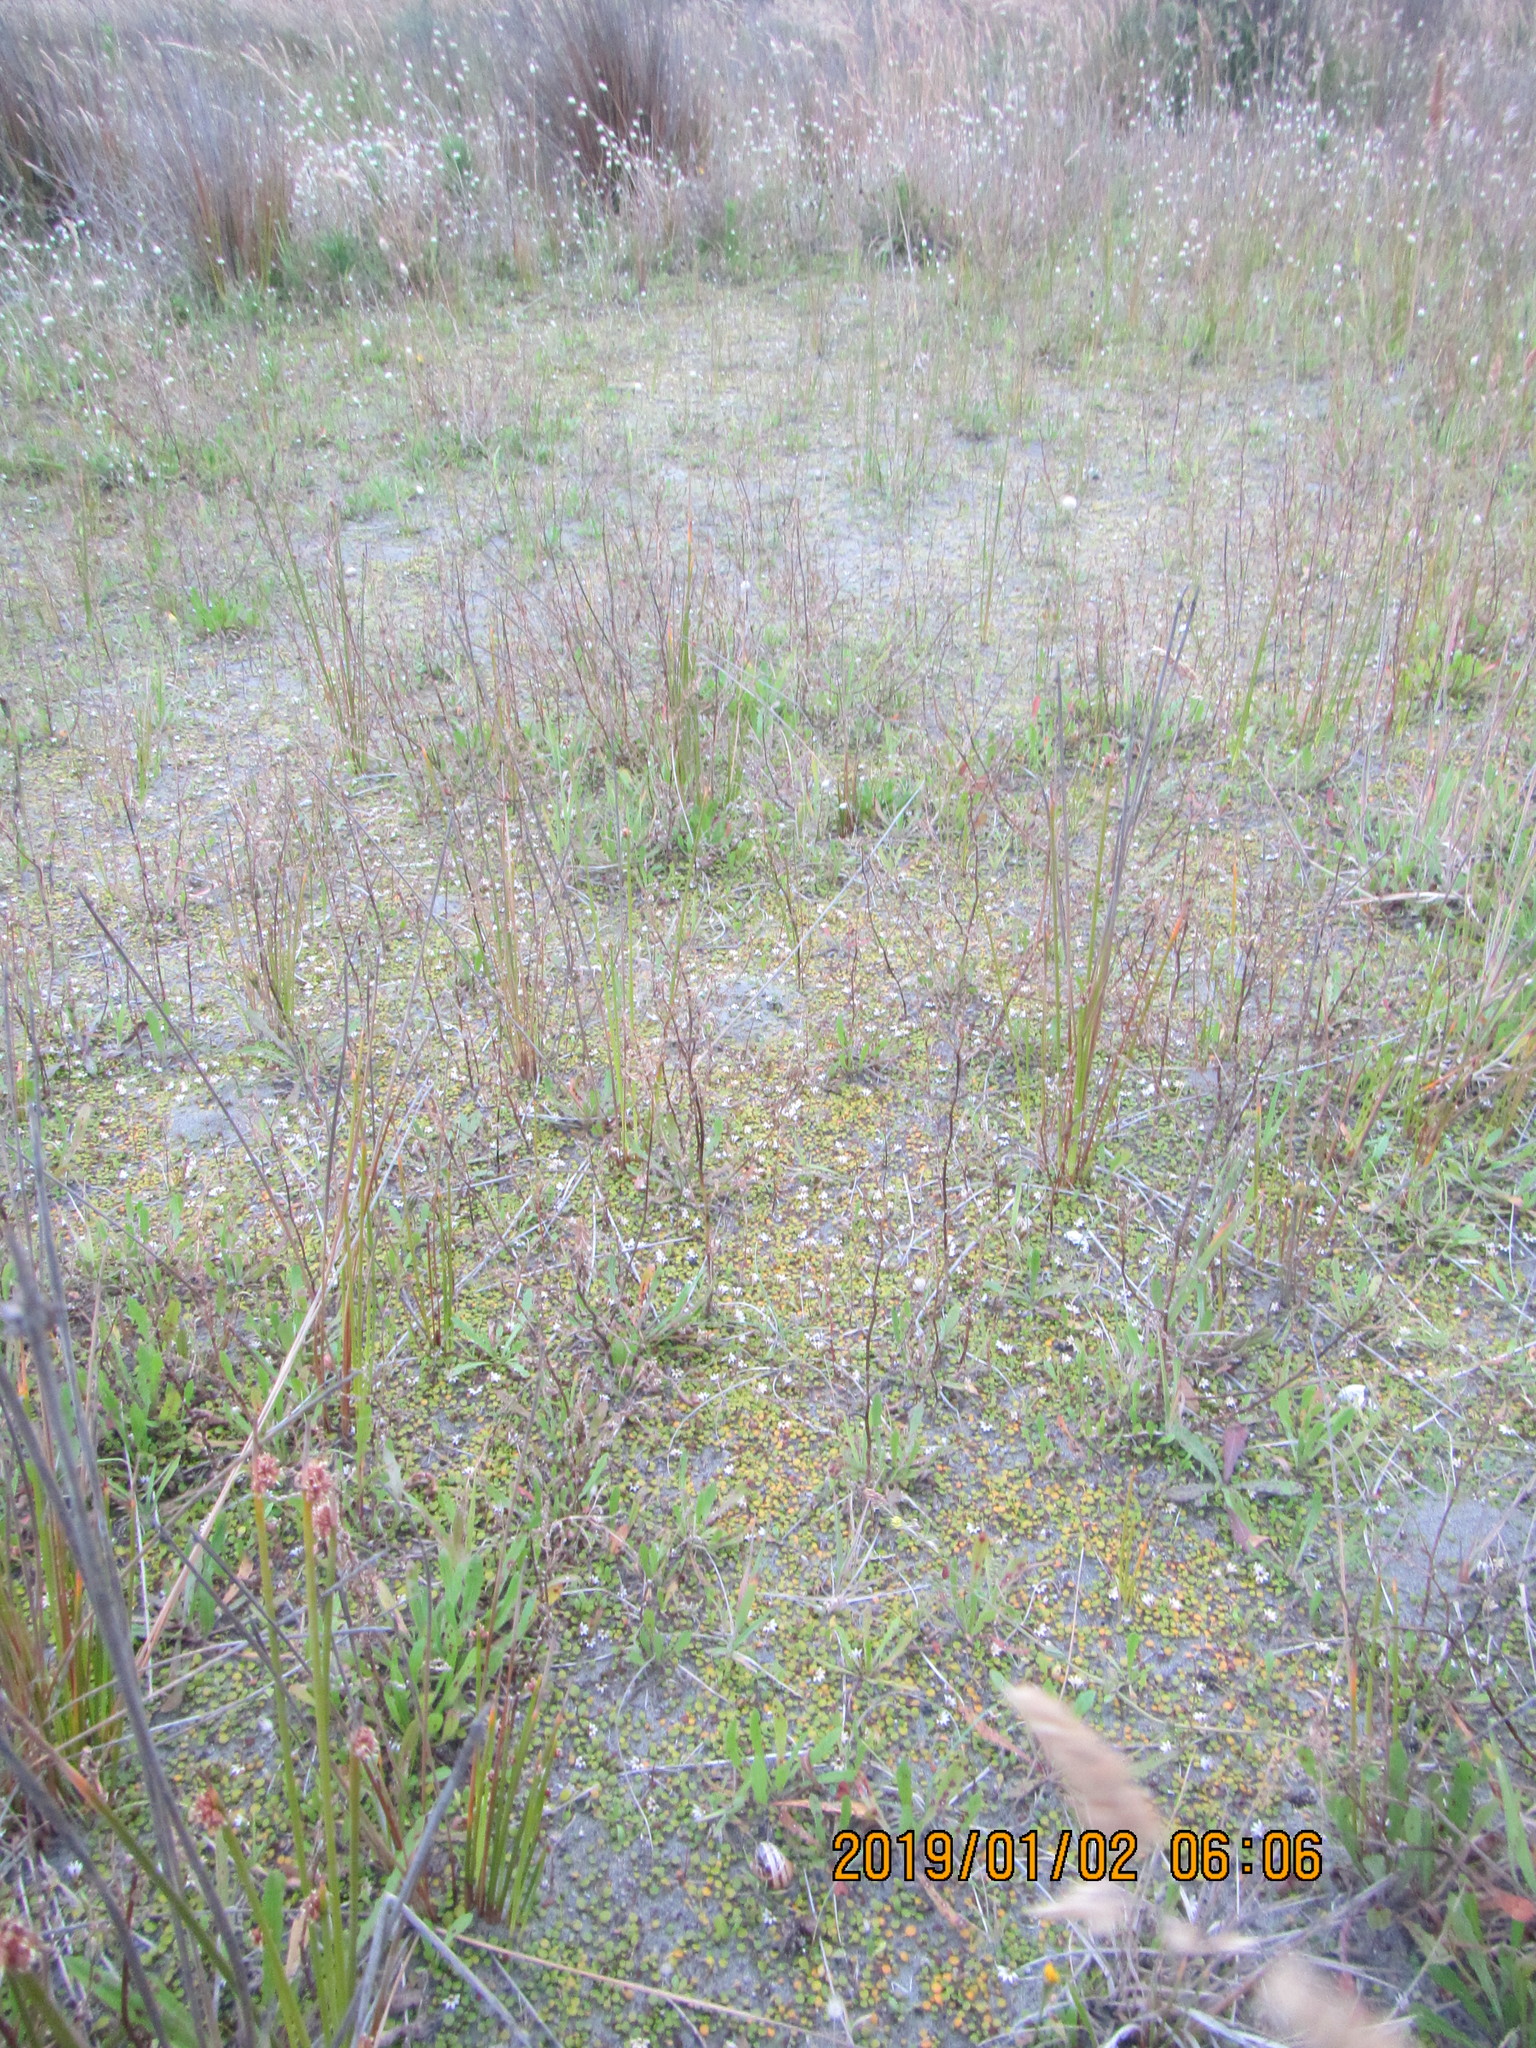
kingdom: Plantae
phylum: Tracheophyta
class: Magnoliopsida
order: Asterales
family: Goodeniaceae
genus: Goodenia
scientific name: Goodenia heenanii
